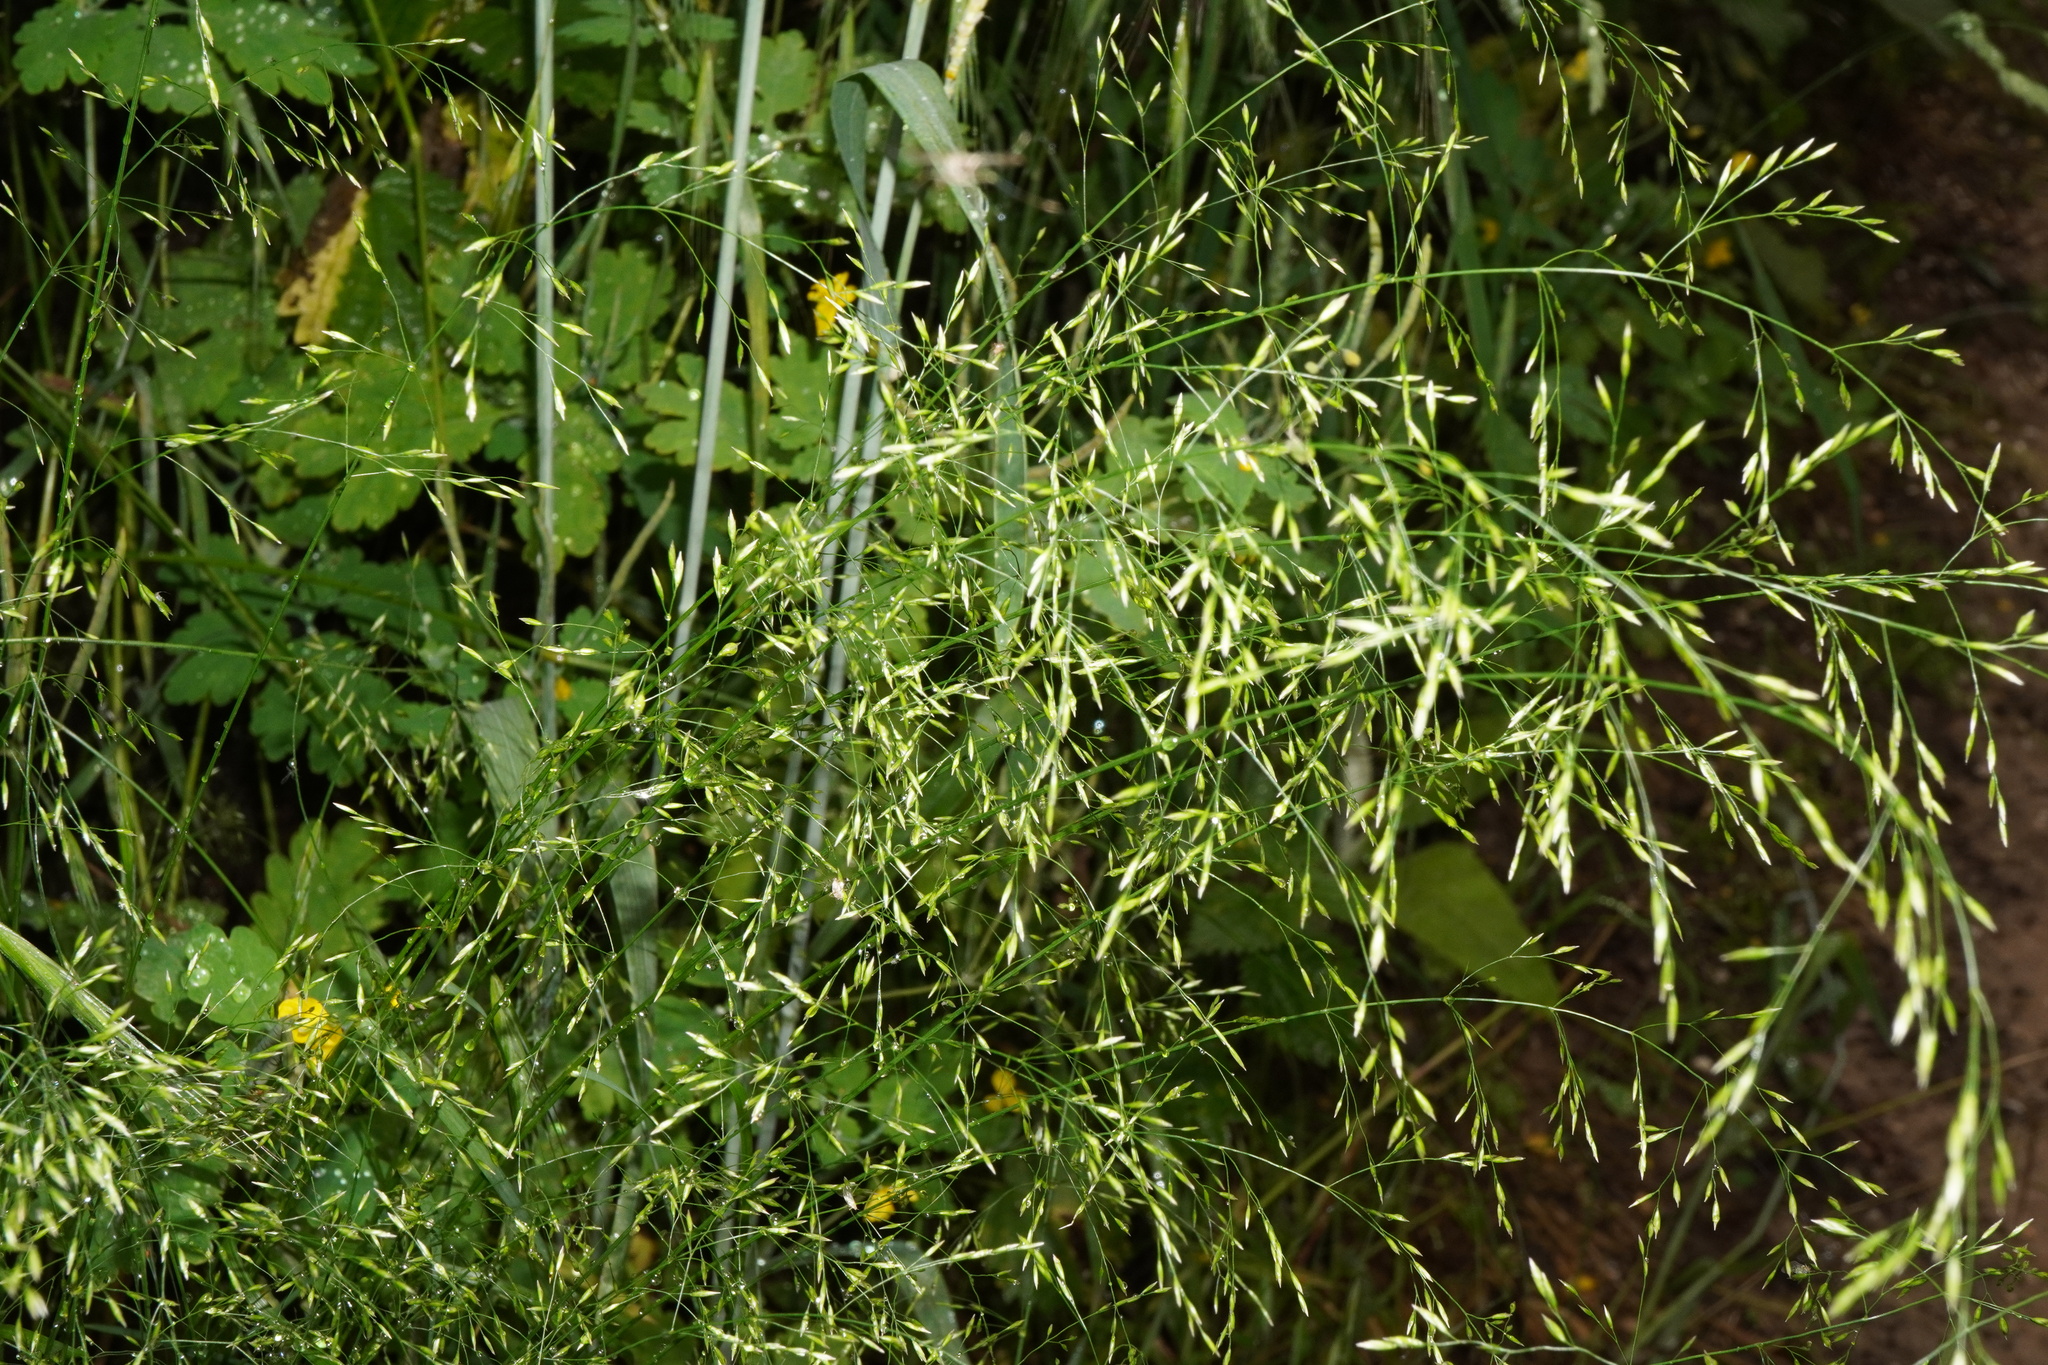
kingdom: Plantae
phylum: Tracheophyta
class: Liliopsida
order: Poales
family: Poaceae
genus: Poa
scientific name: Poa nemoralis
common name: Wood bluegrass
